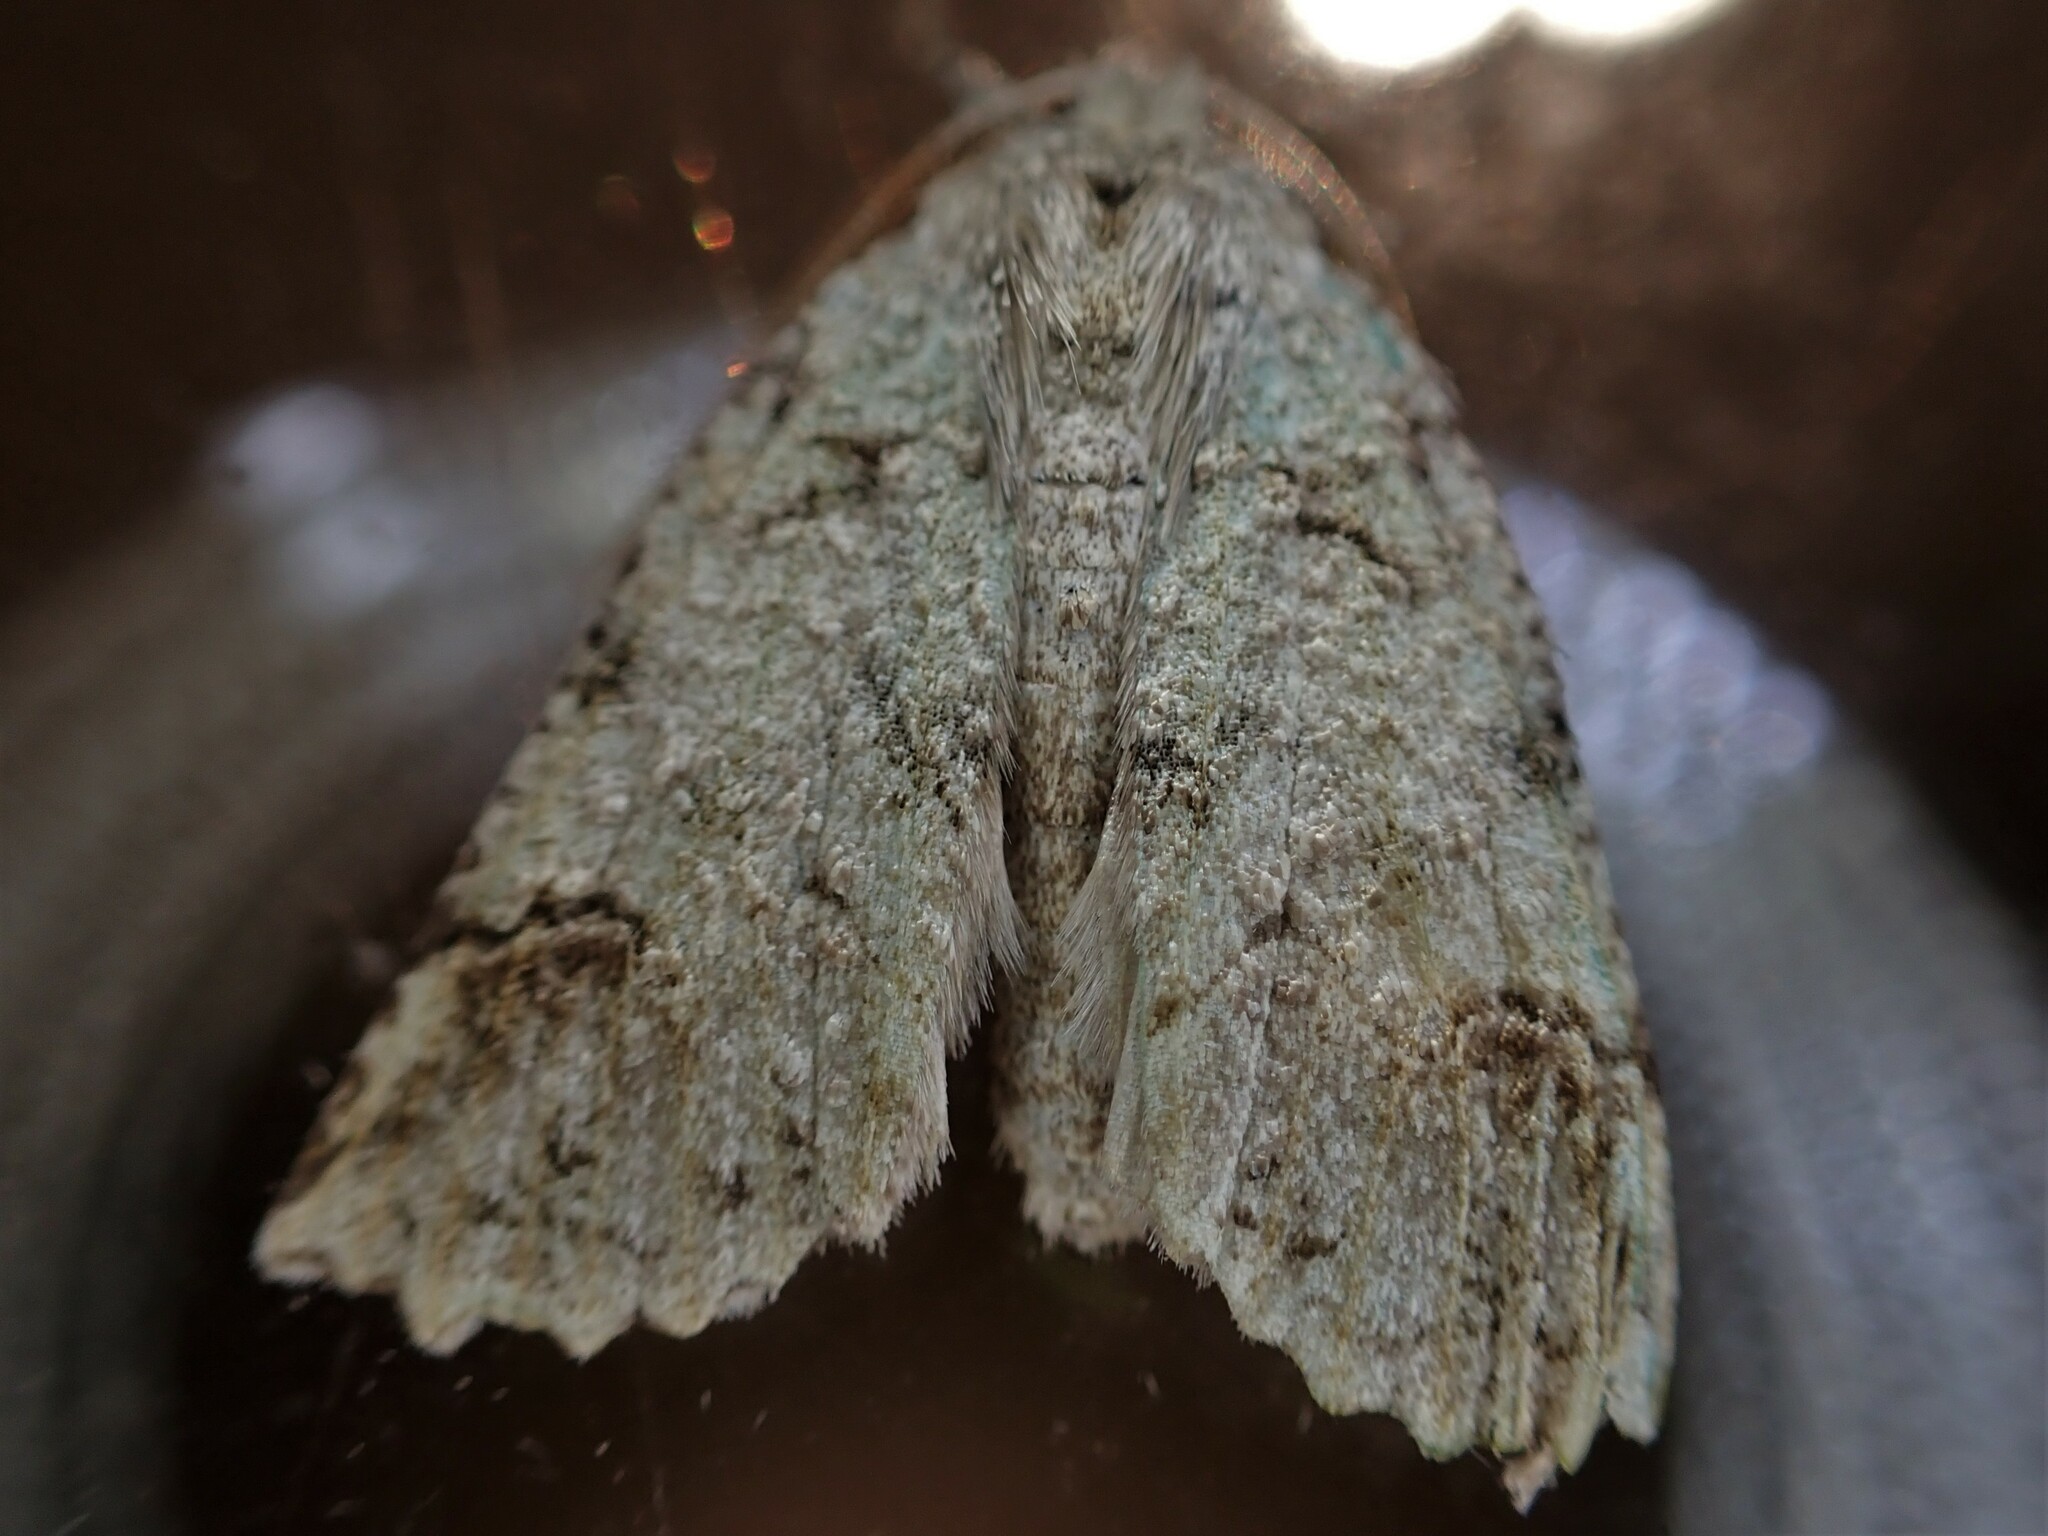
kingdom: Animalia
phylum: Arthropoda
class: Insecta
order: Lepidoptera
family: Geometridae
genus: Declana
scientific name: Declana floccosa
